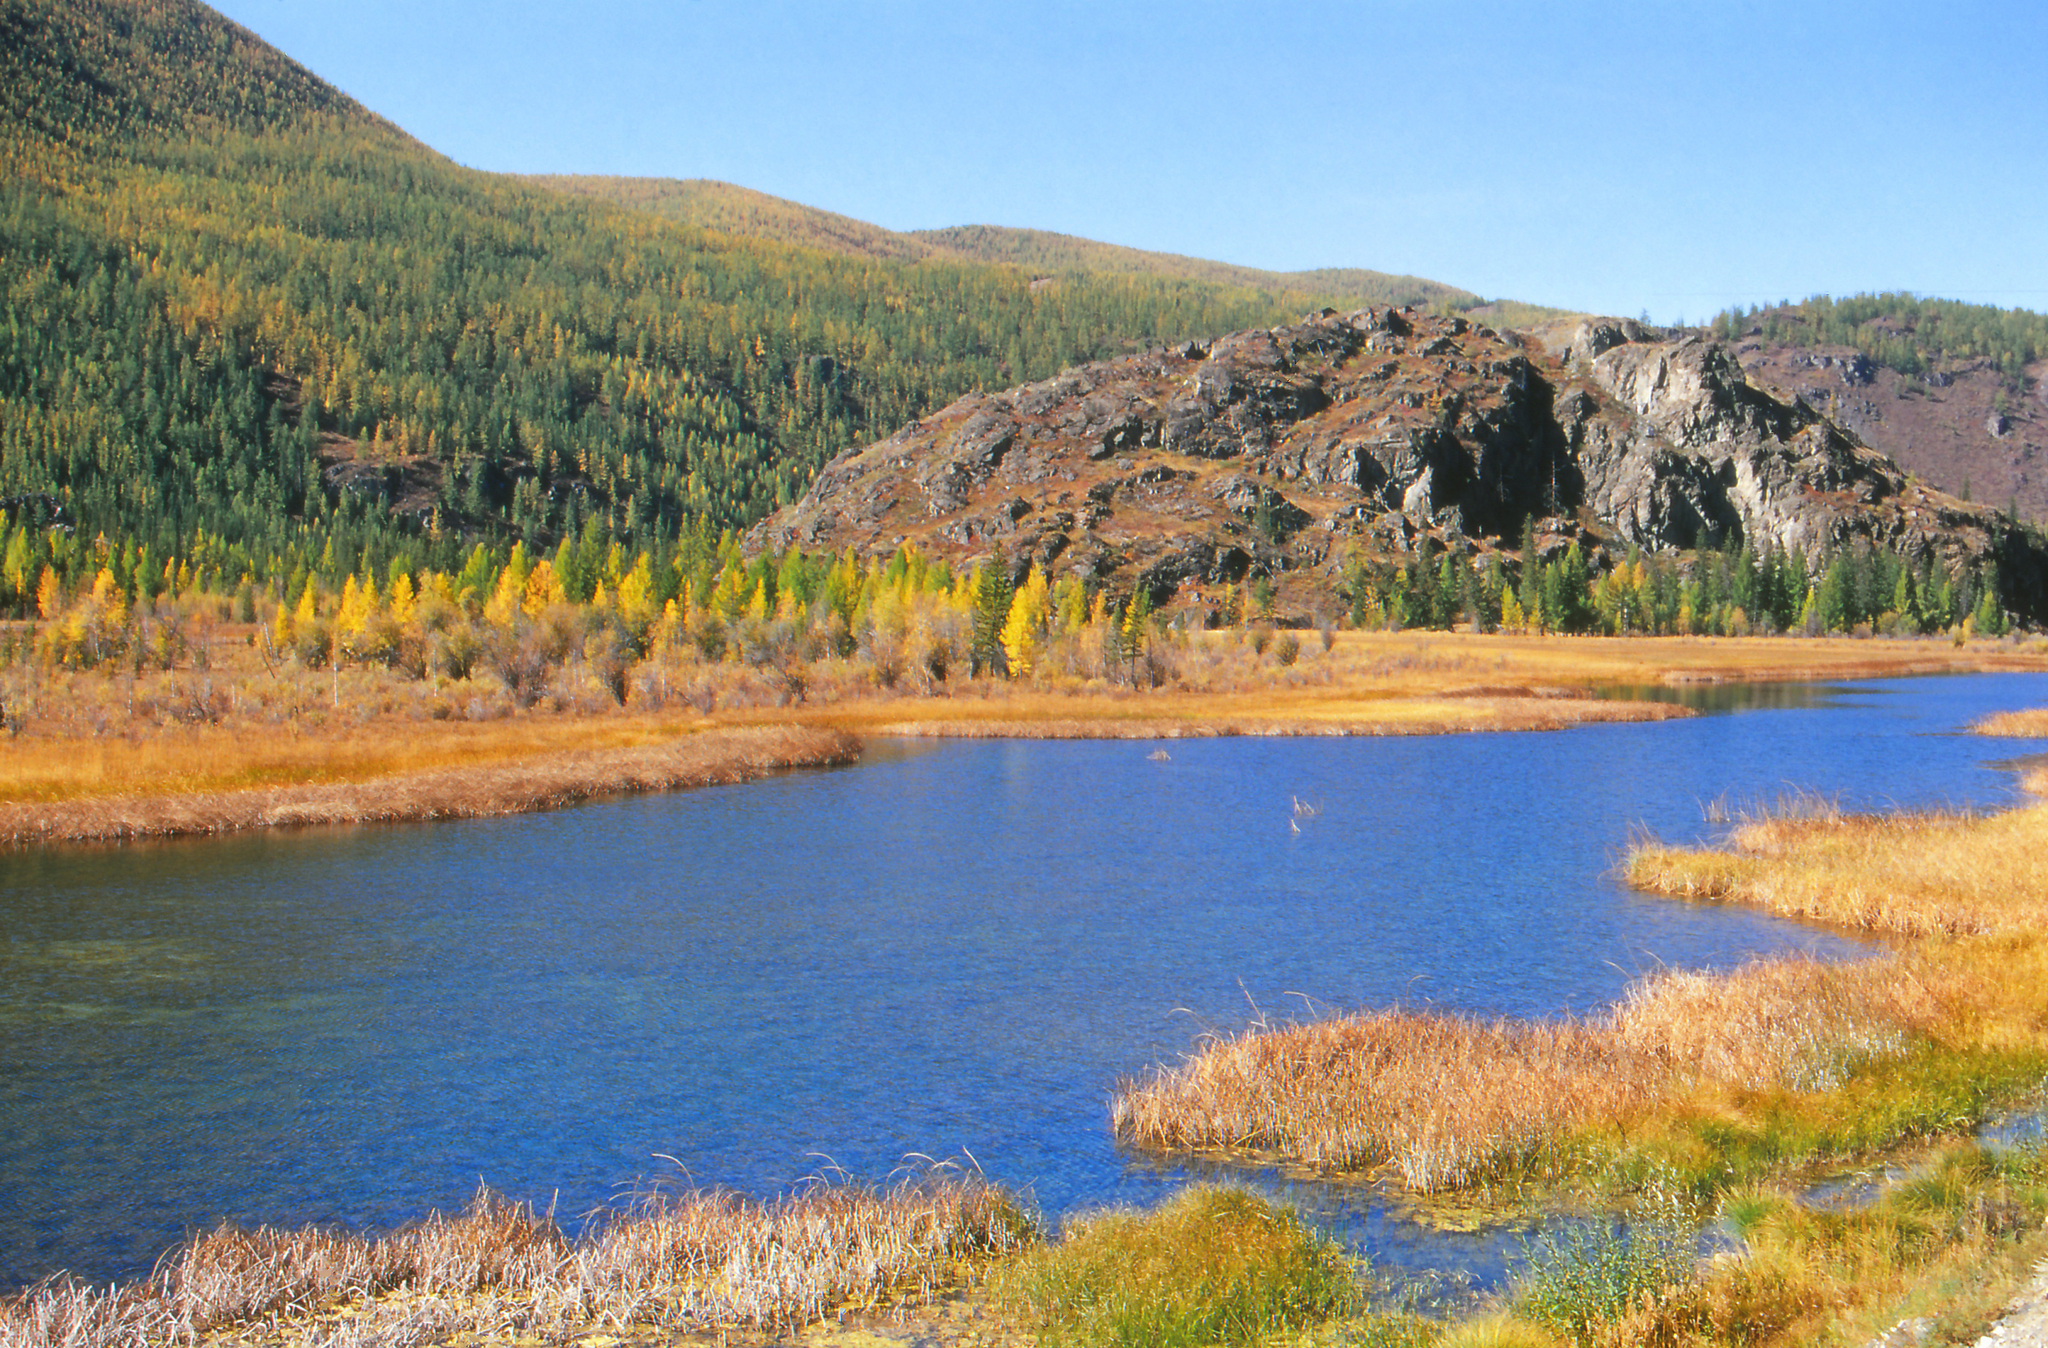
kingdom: Plantae
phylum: Tracheophyta
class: Pinopsida
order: Pinales
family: Pinaceae
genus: Larix
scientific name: Larix sibirica
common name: Siberian larch
